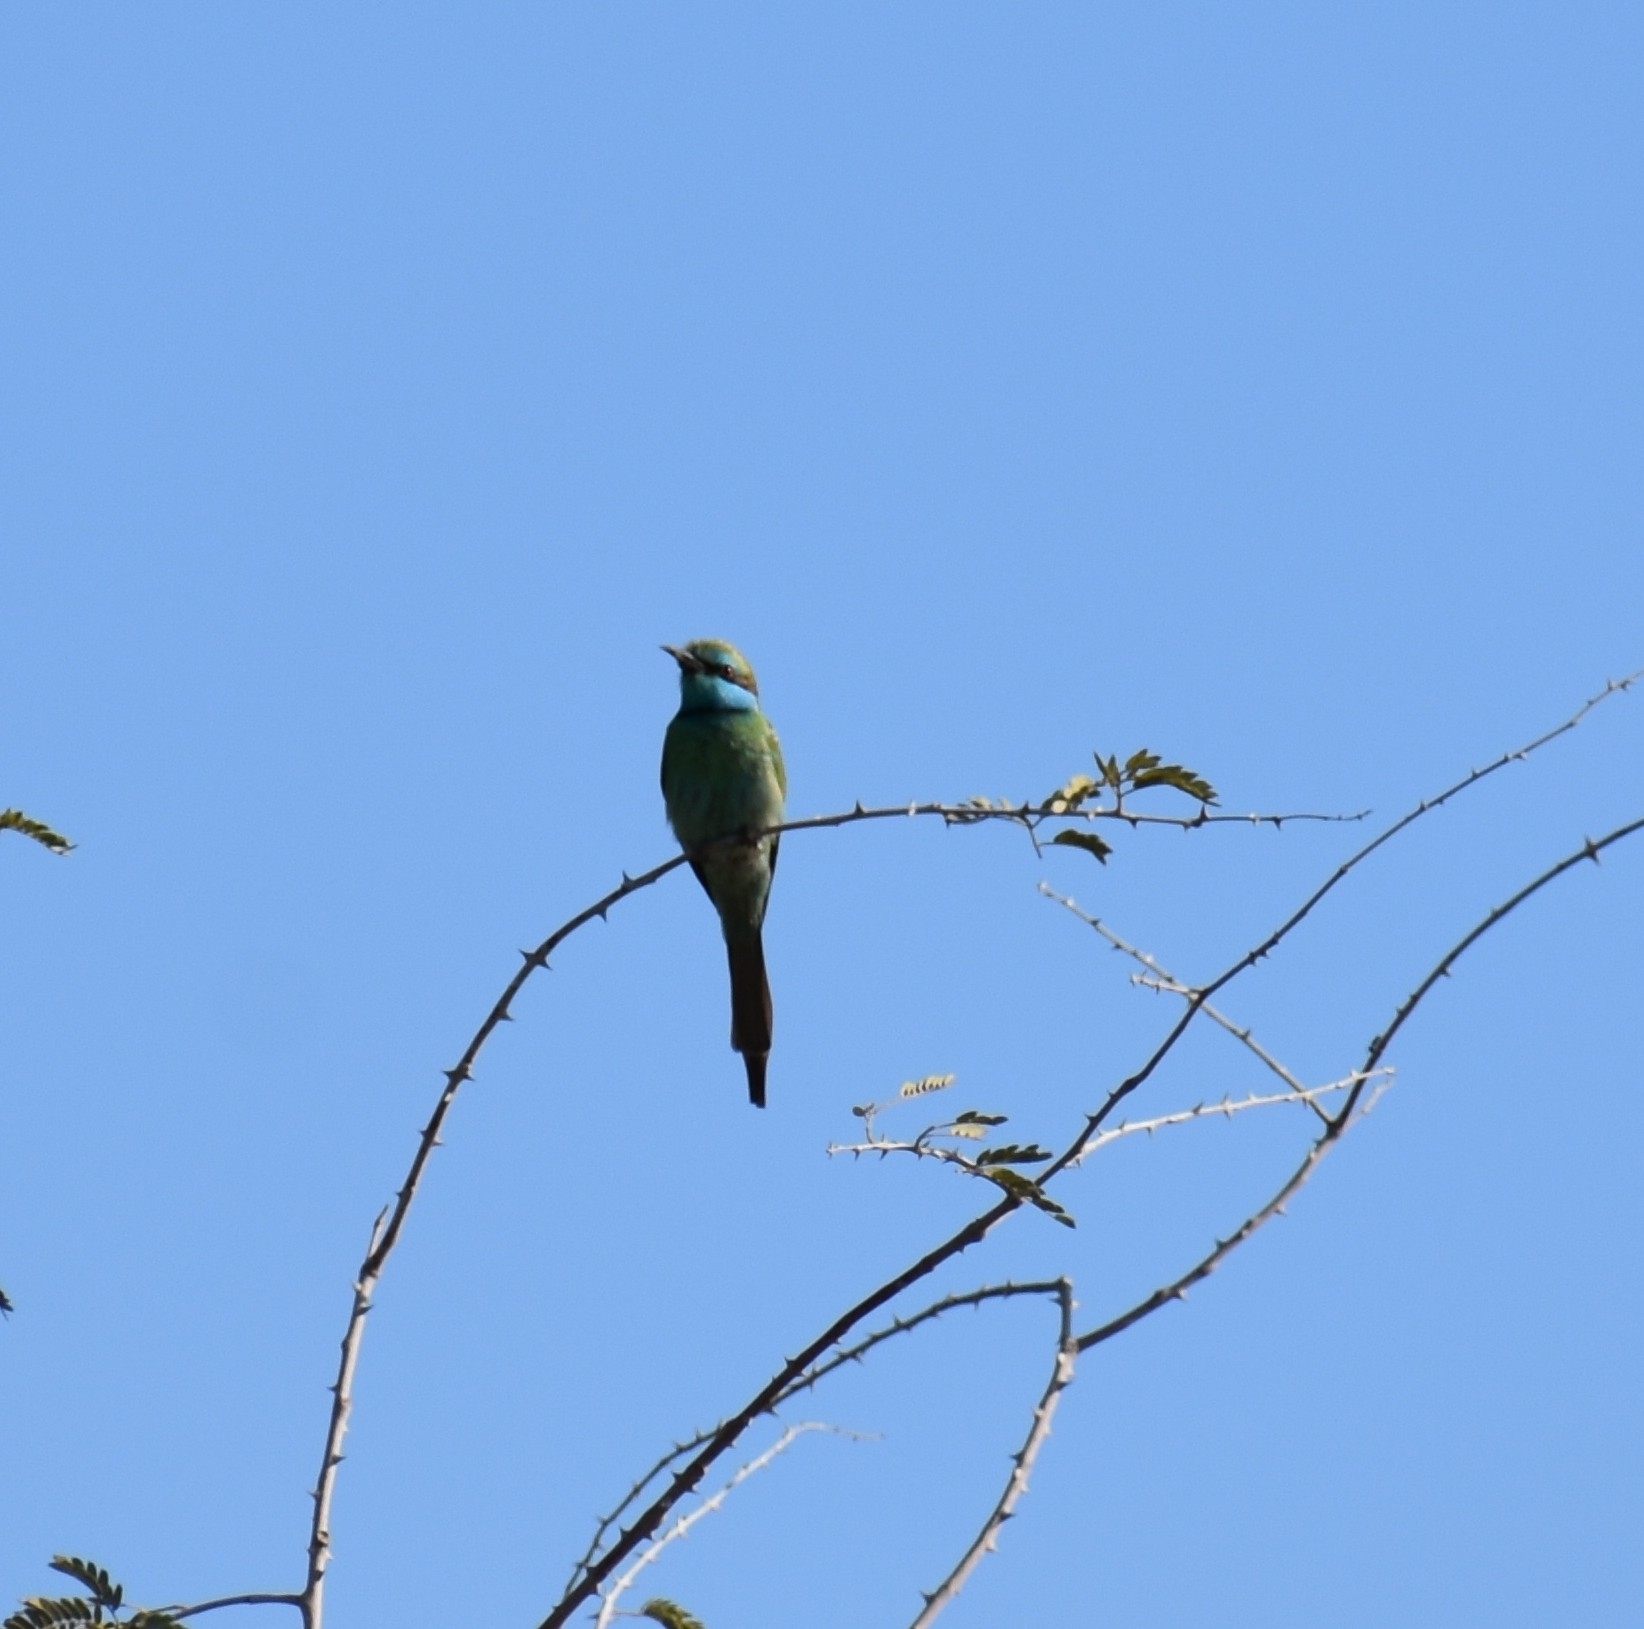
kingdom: Animalia
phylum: Chordata
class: Aves
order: Coraciiformes
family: Meropidae
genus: Merops
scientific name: Merops cyanophrys
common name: Arabian green bee-eater
